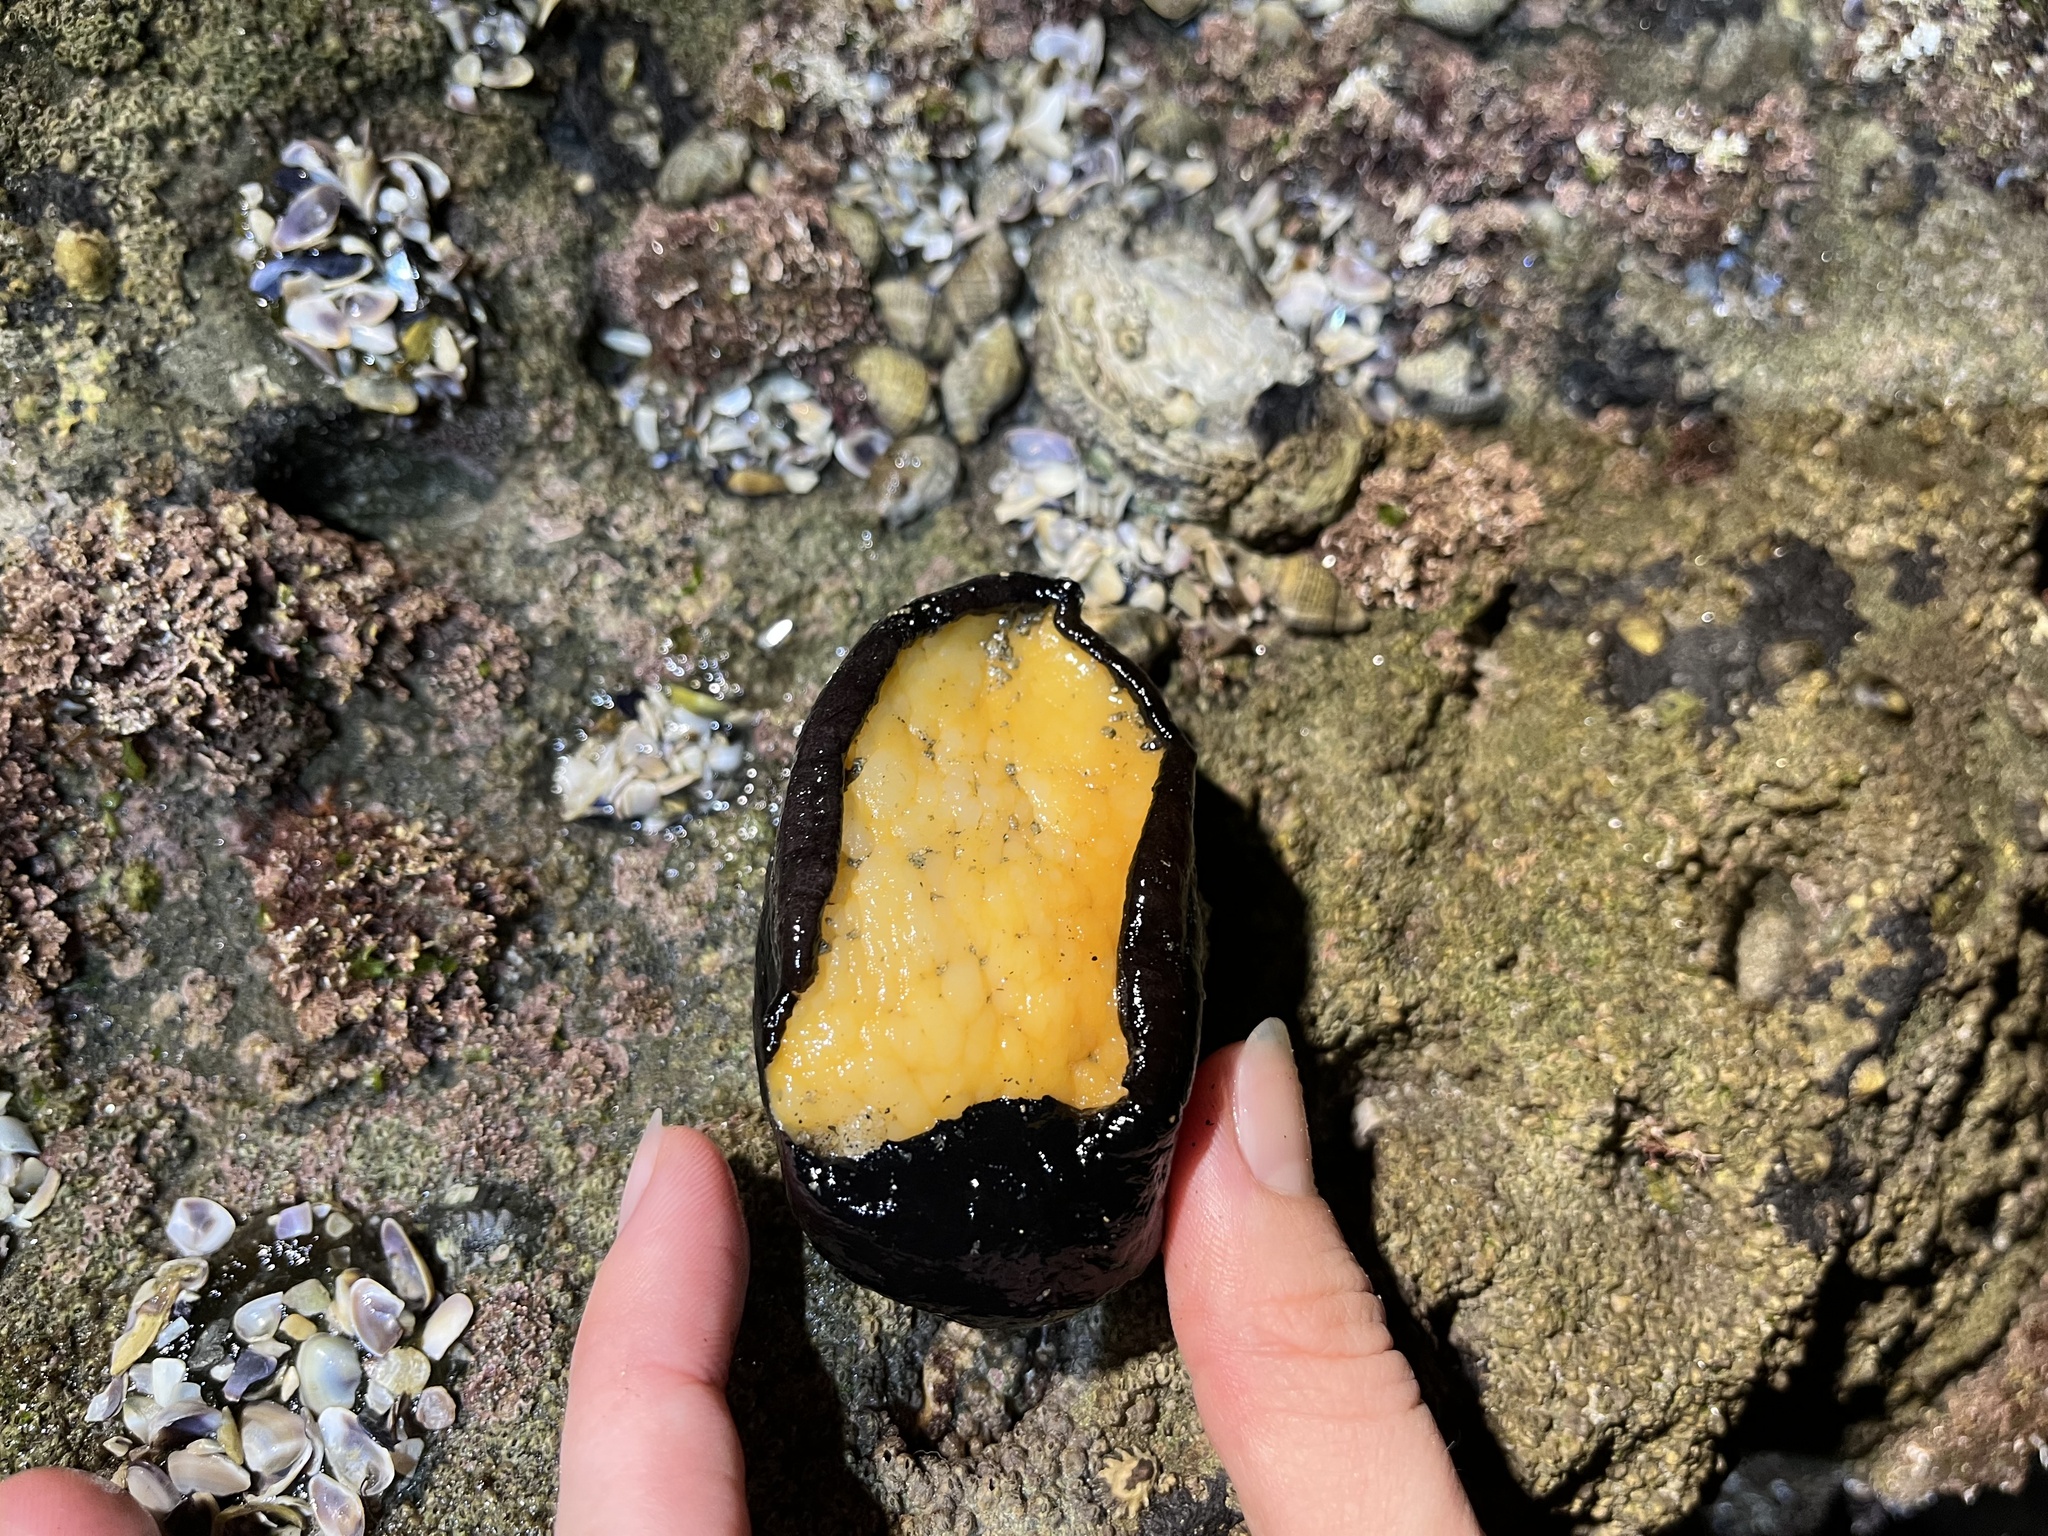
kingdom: Animalia
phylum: Mollusca
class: Gastropoda
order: Lepetellida
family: Fissurellidae
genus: Megathura
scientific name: Megathura crenulata
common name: Giant keyhole limpet
